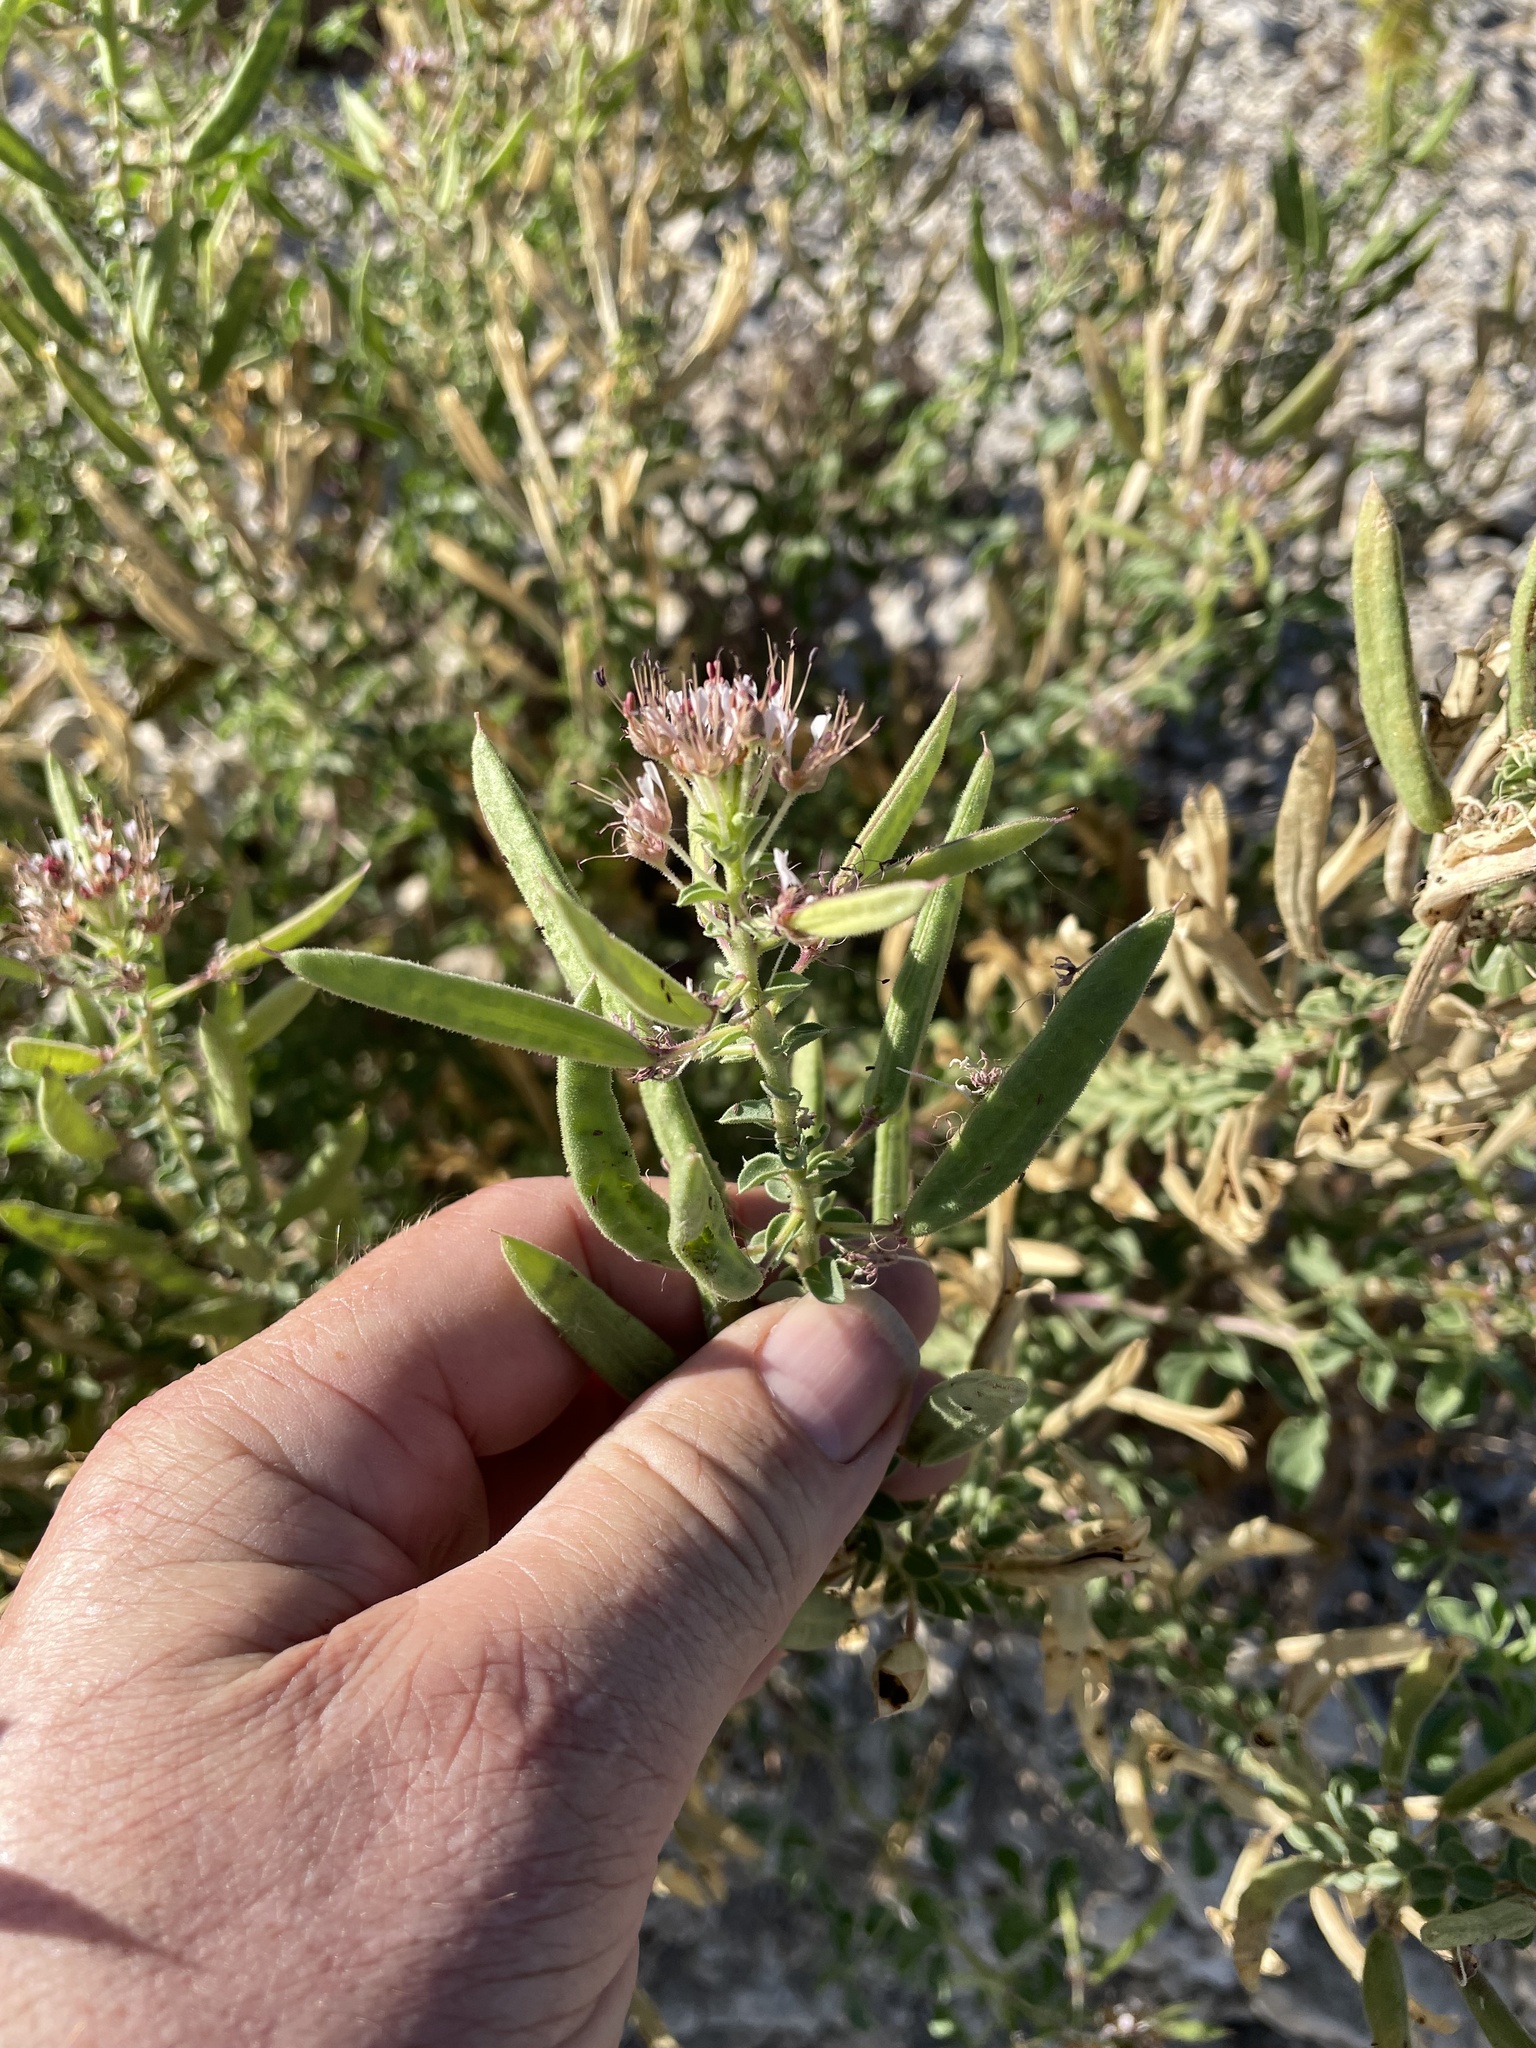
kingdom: Plantae
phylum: Tracheophyta
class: Magnoliopsida
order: Brassicales
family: Cleomaceae
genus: Polanisia
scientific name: Polanisia dodecandra
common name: Clammyweed
